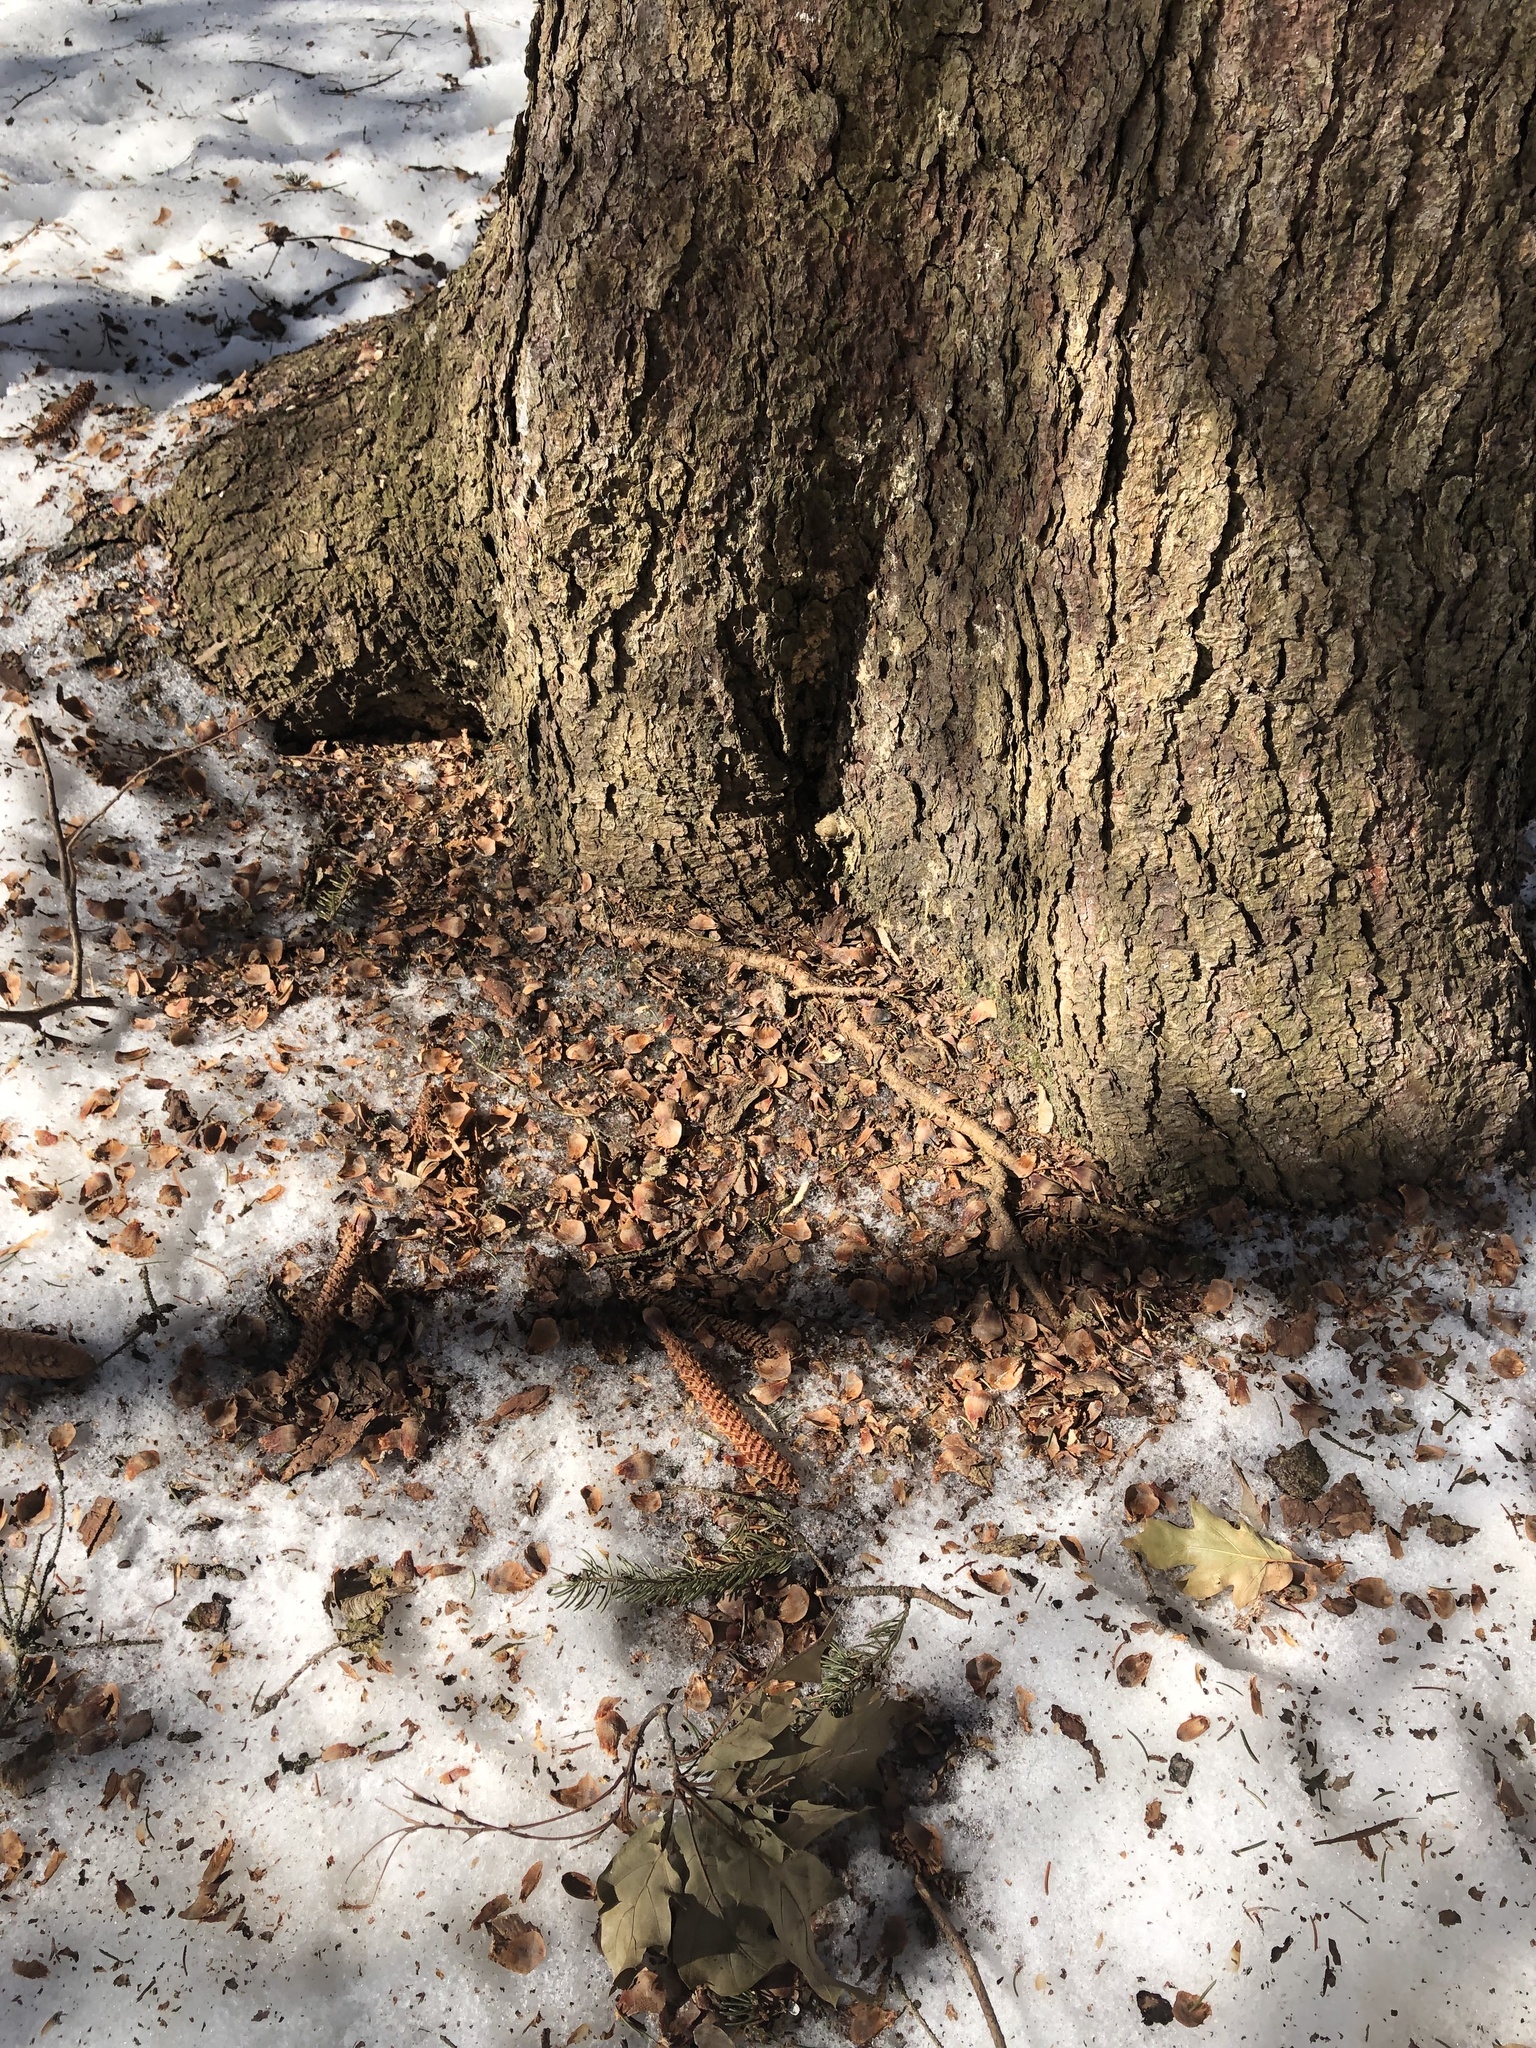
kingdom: Animalia
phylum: Chordata
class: Mammalia
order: Rodentia
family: Sciuridae
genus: Sciurus
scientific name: Sciurus carolinensis
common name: Eastern gray squirrel
